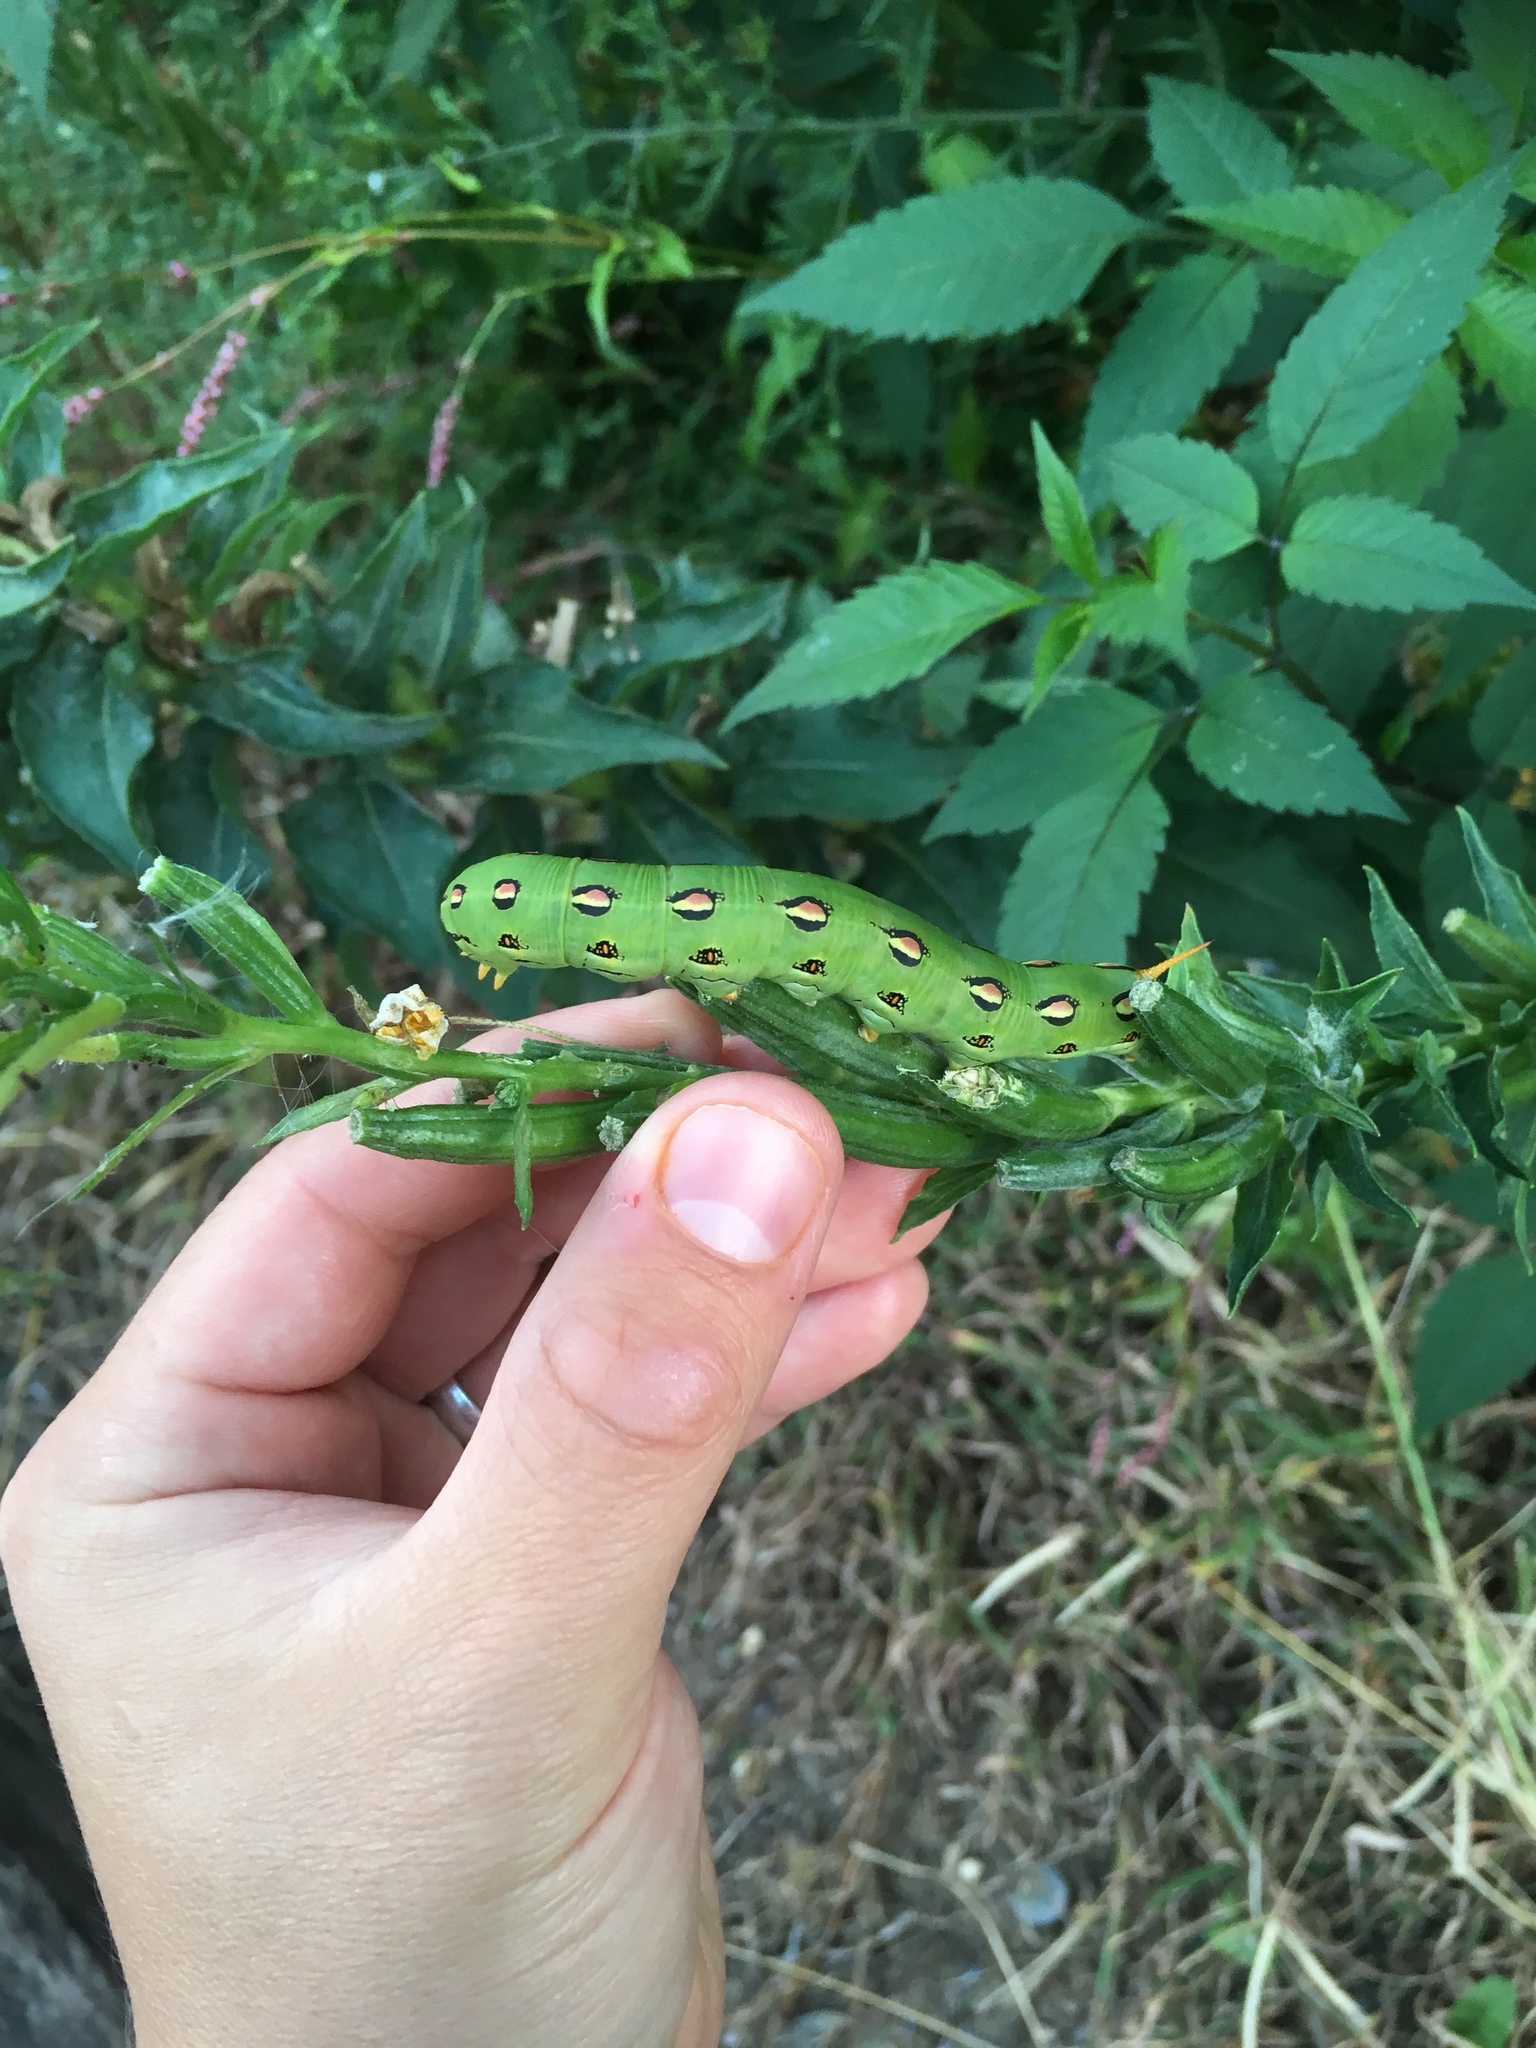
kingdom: Animalia
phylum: Arthropoda
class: Insecta
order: Lepidoptera
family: Sphingidae
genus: Hyles
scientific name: Hyles lineata
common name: White-lined sphinx
